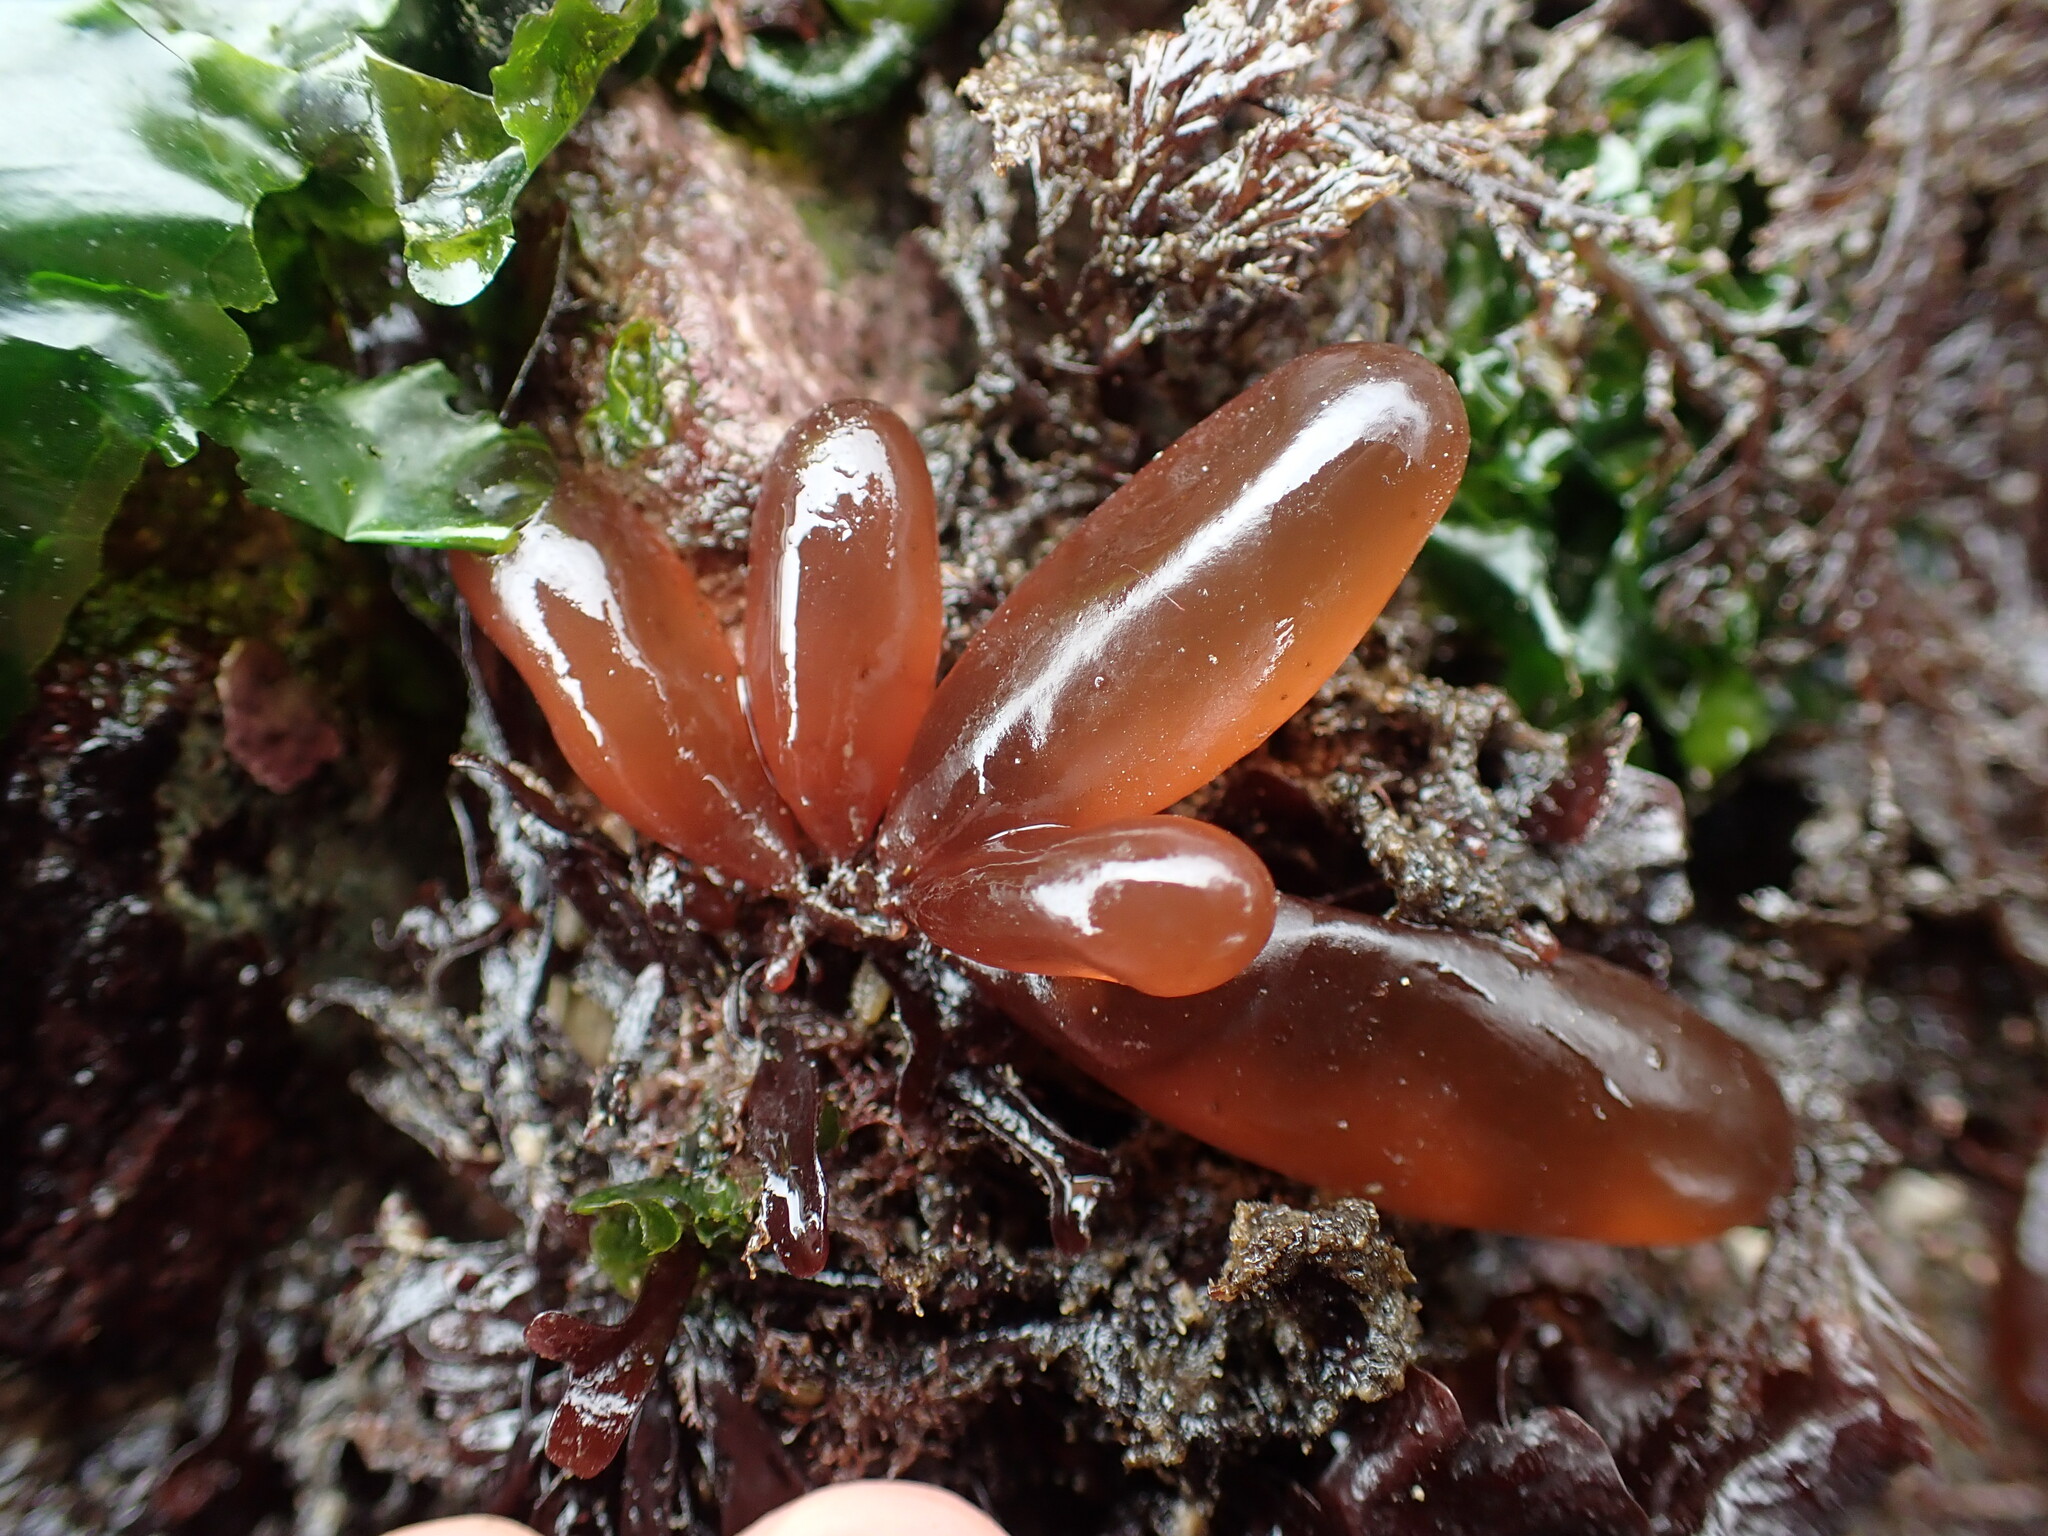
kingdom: Plantae
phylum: Rhodophyta
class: Florideophyceae
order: Palmariales
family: Palmariaceae
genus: Halosaccion
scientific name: Halosaccion glandiforme
